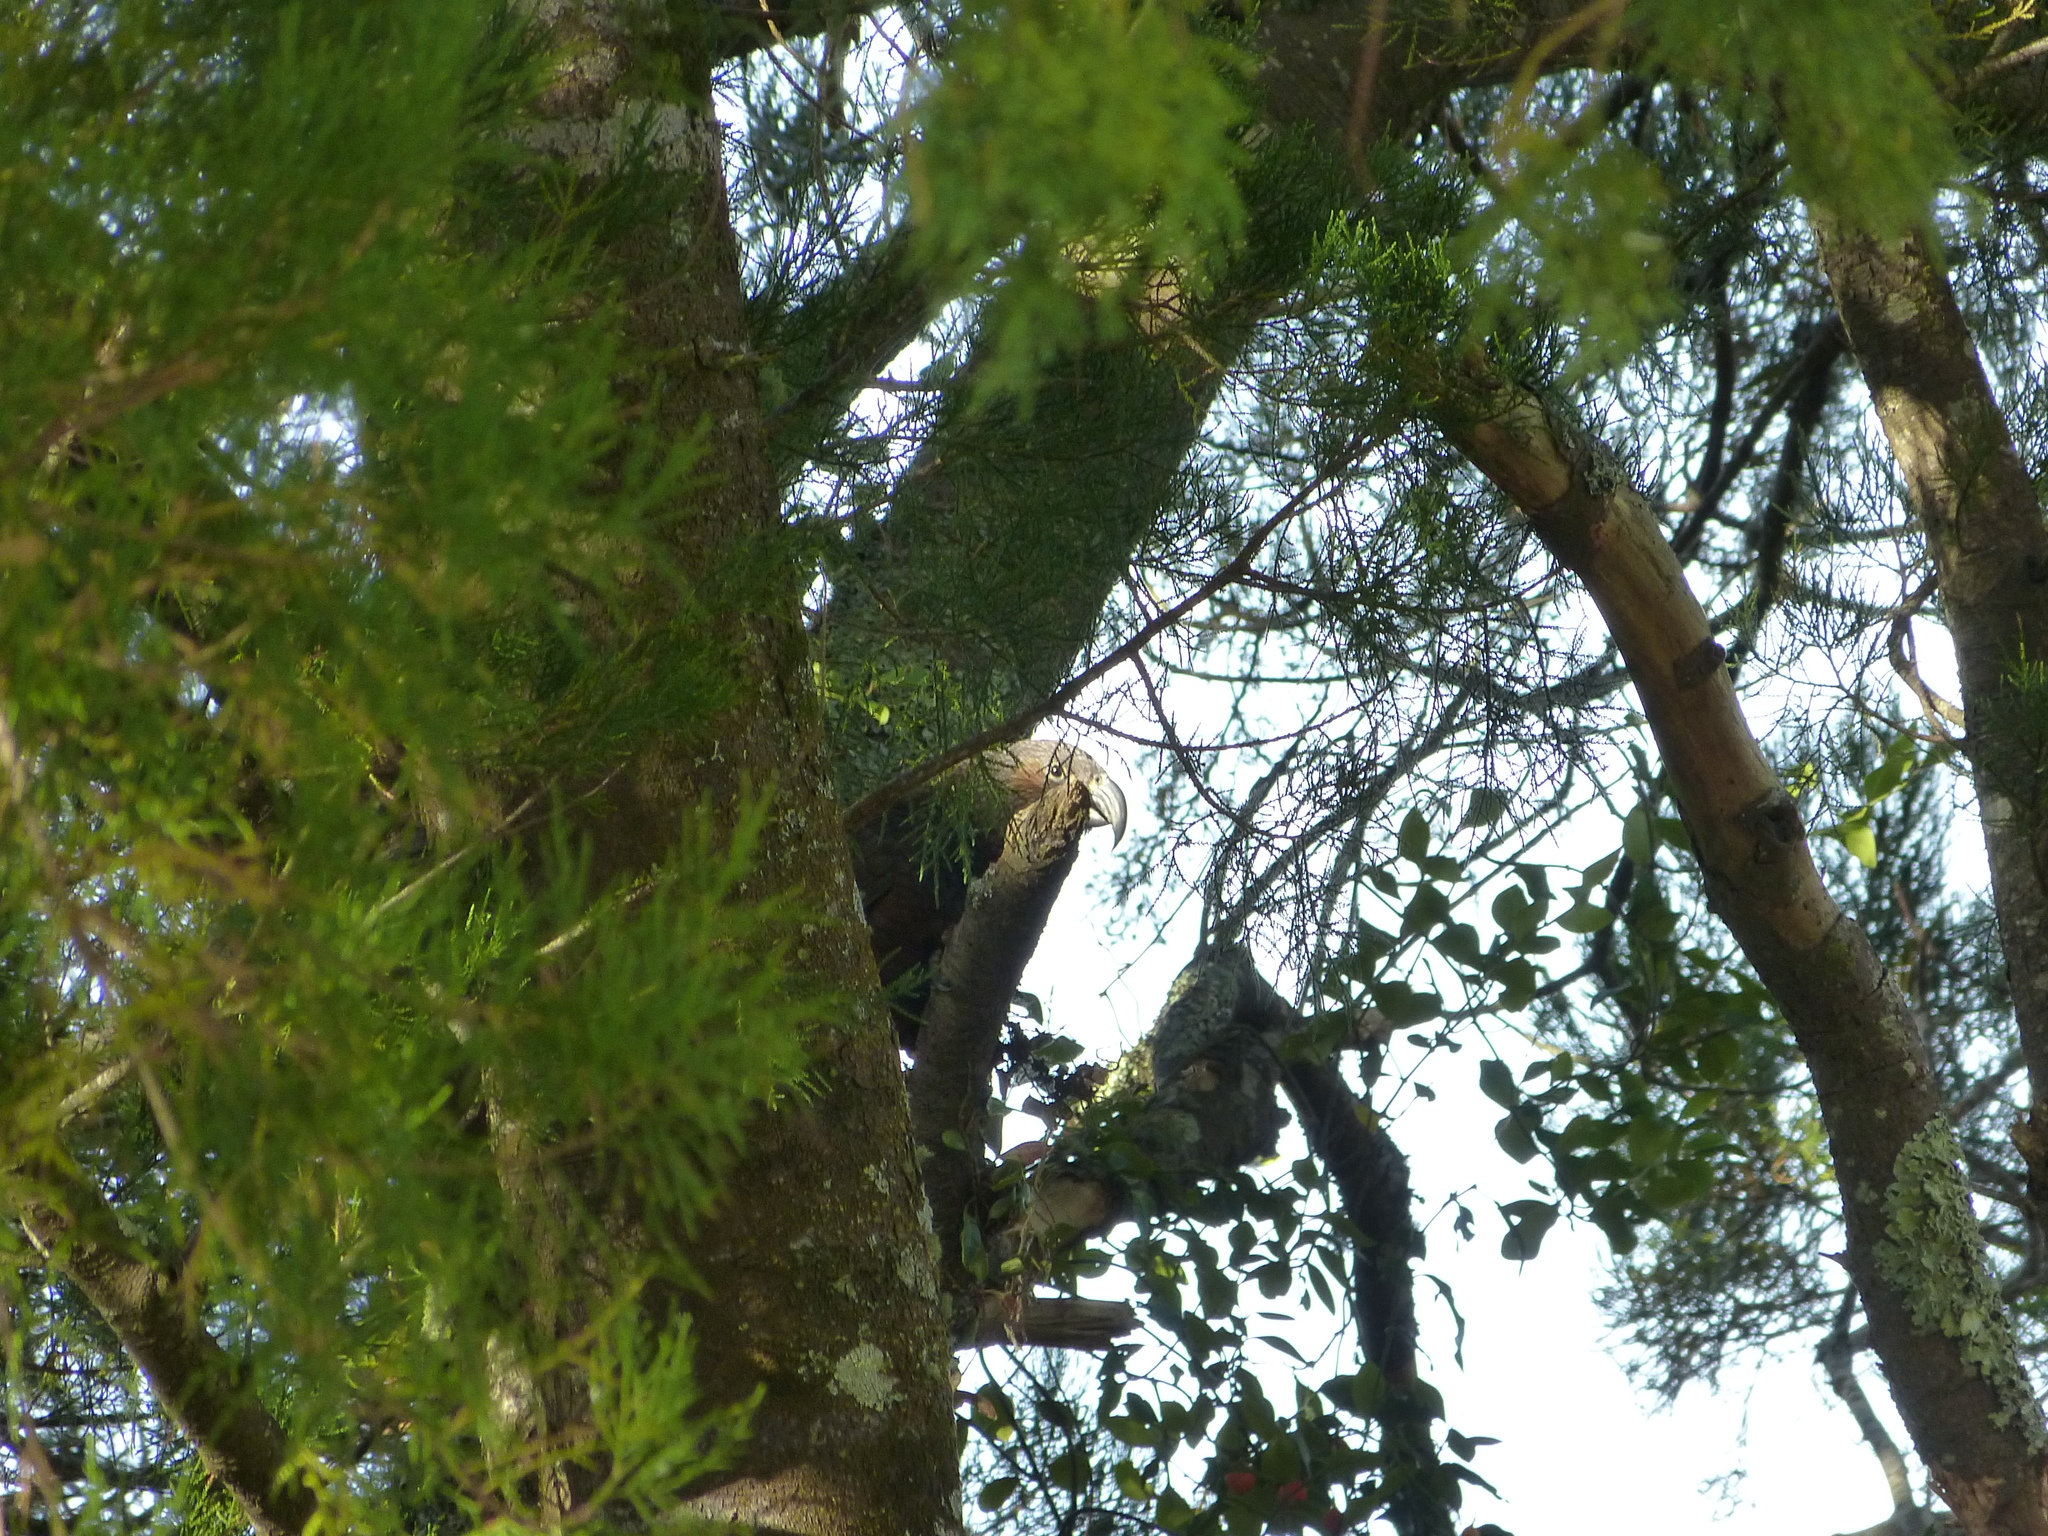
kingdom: Animalia
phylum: Chordata
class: Aves
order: Psittaciformes
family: Psittacidae
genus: Nestor
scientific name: Nestor meridionalis
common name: New zealand kaka
